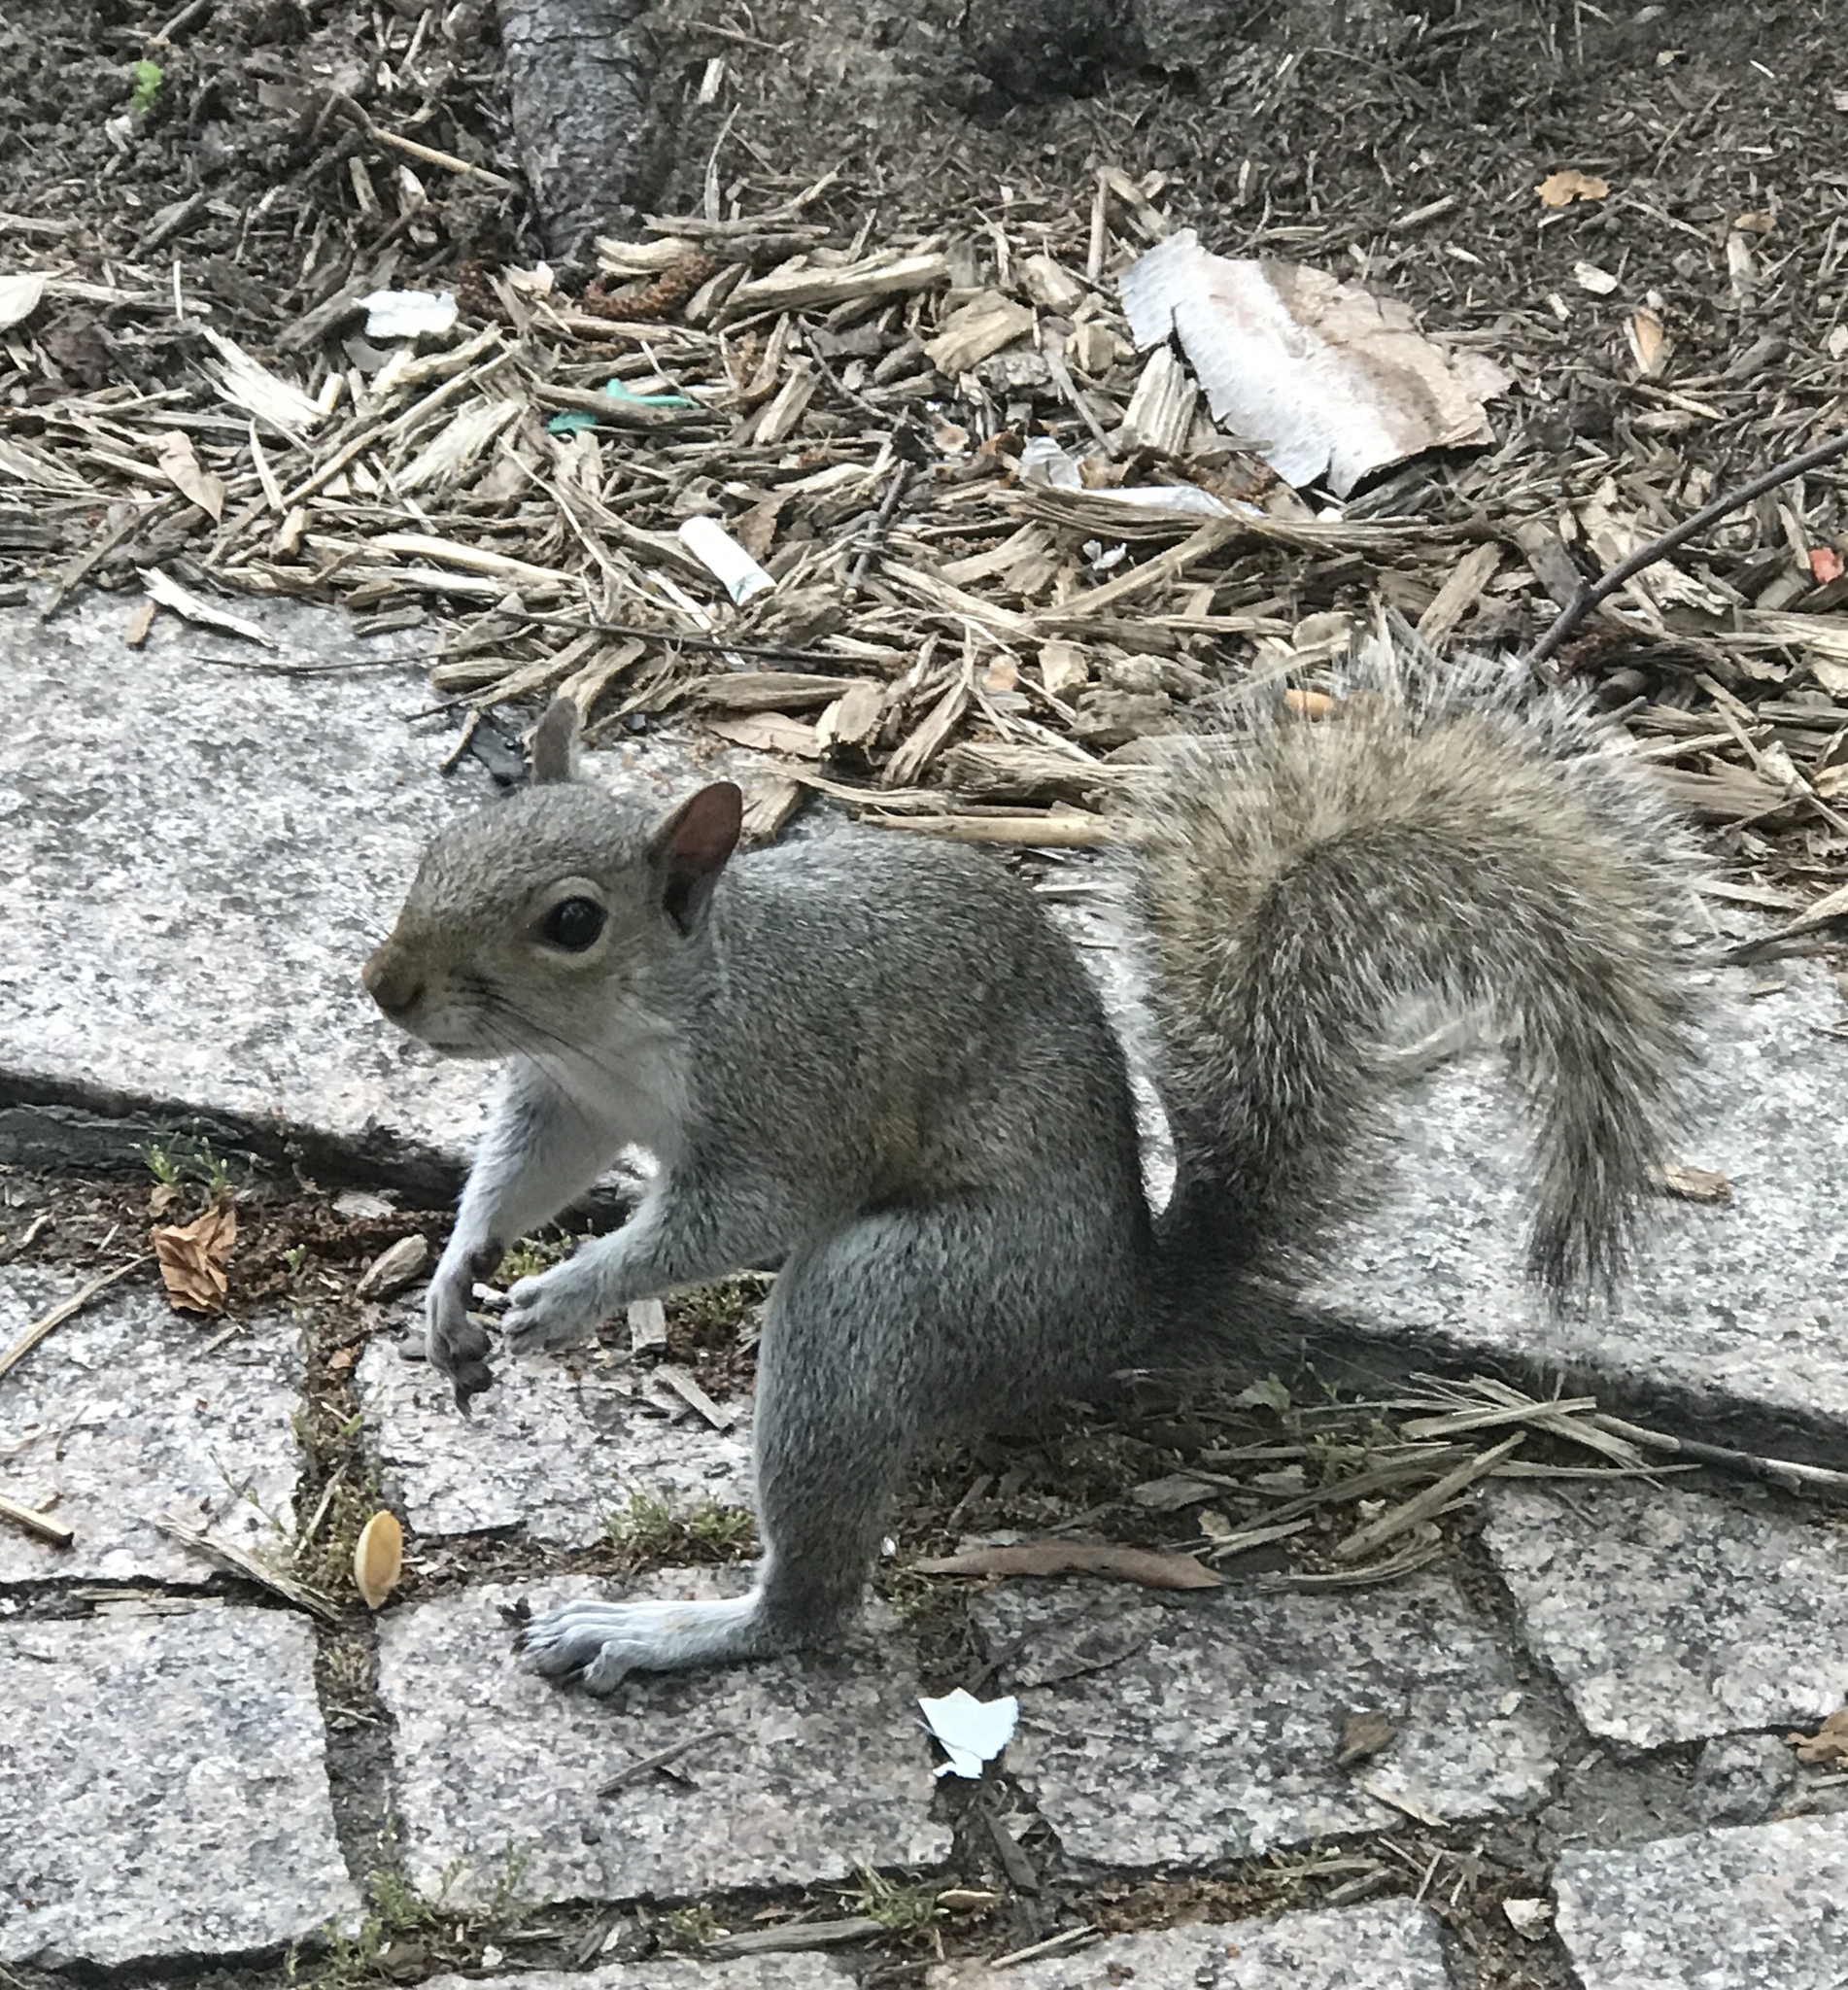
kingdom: Animalia
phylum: Chordata
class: Mammalia
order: Rodentia
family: Sciuridae
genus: Sciurus
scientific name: Sciurus carolinensis
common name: Eastern gray squirrel
